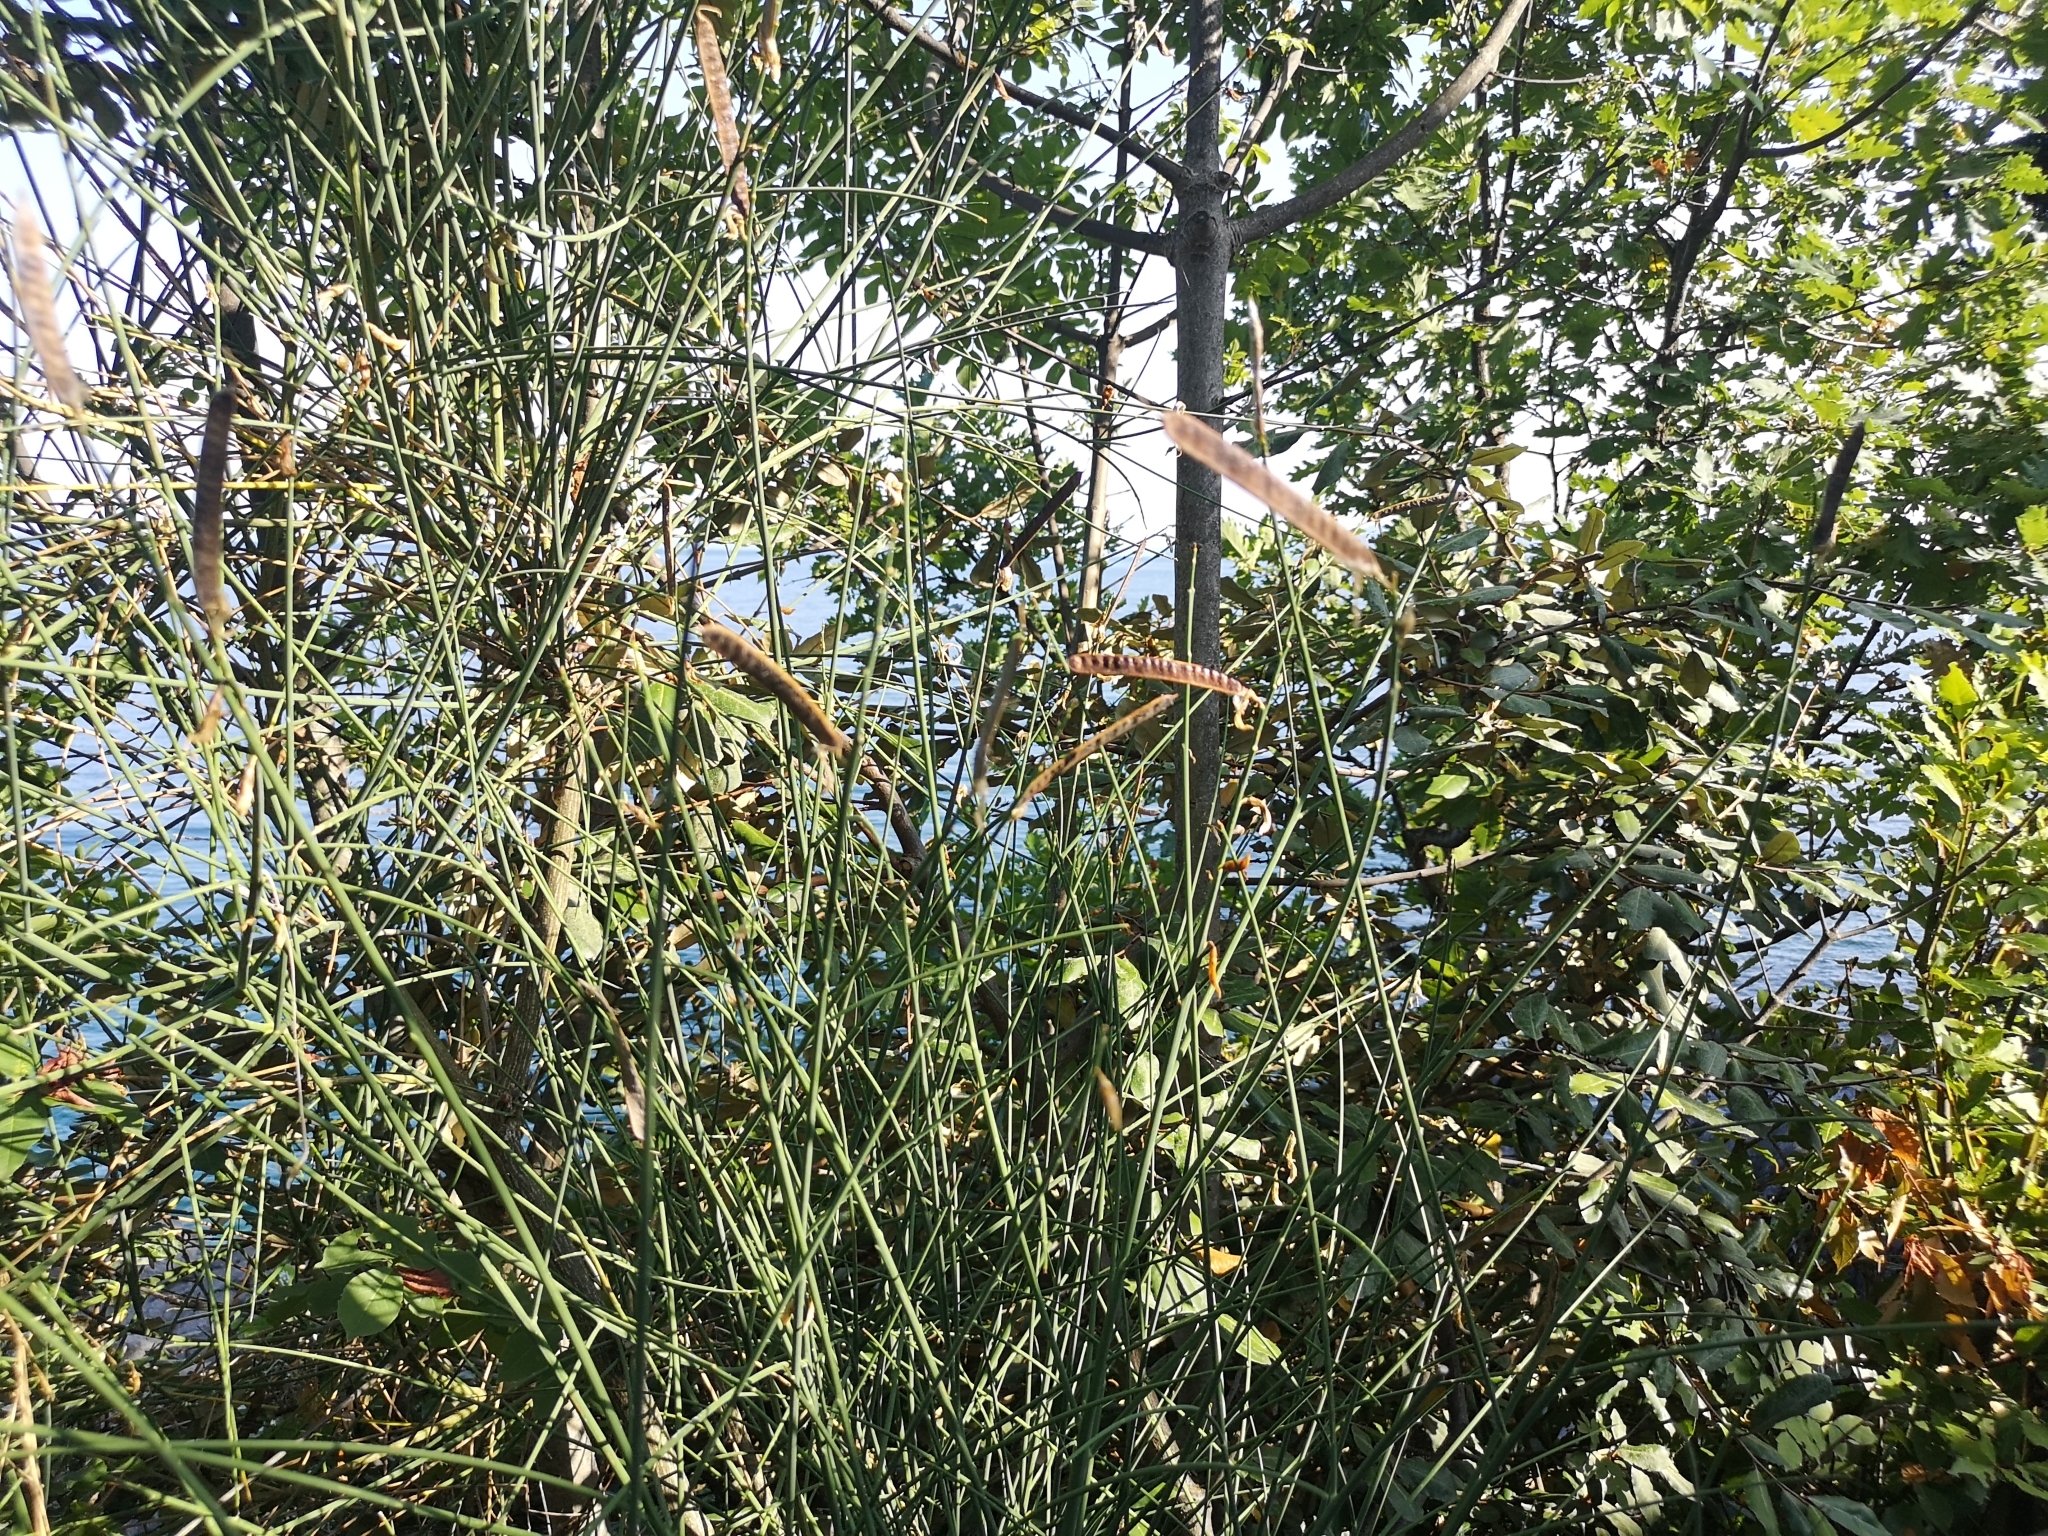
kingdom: Plantae
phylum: Tracheophyta
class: Magnoliopsida
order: Fabales
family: Fabaceae
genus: Spartium
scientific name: Spartium junceum
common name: Spanish broom
